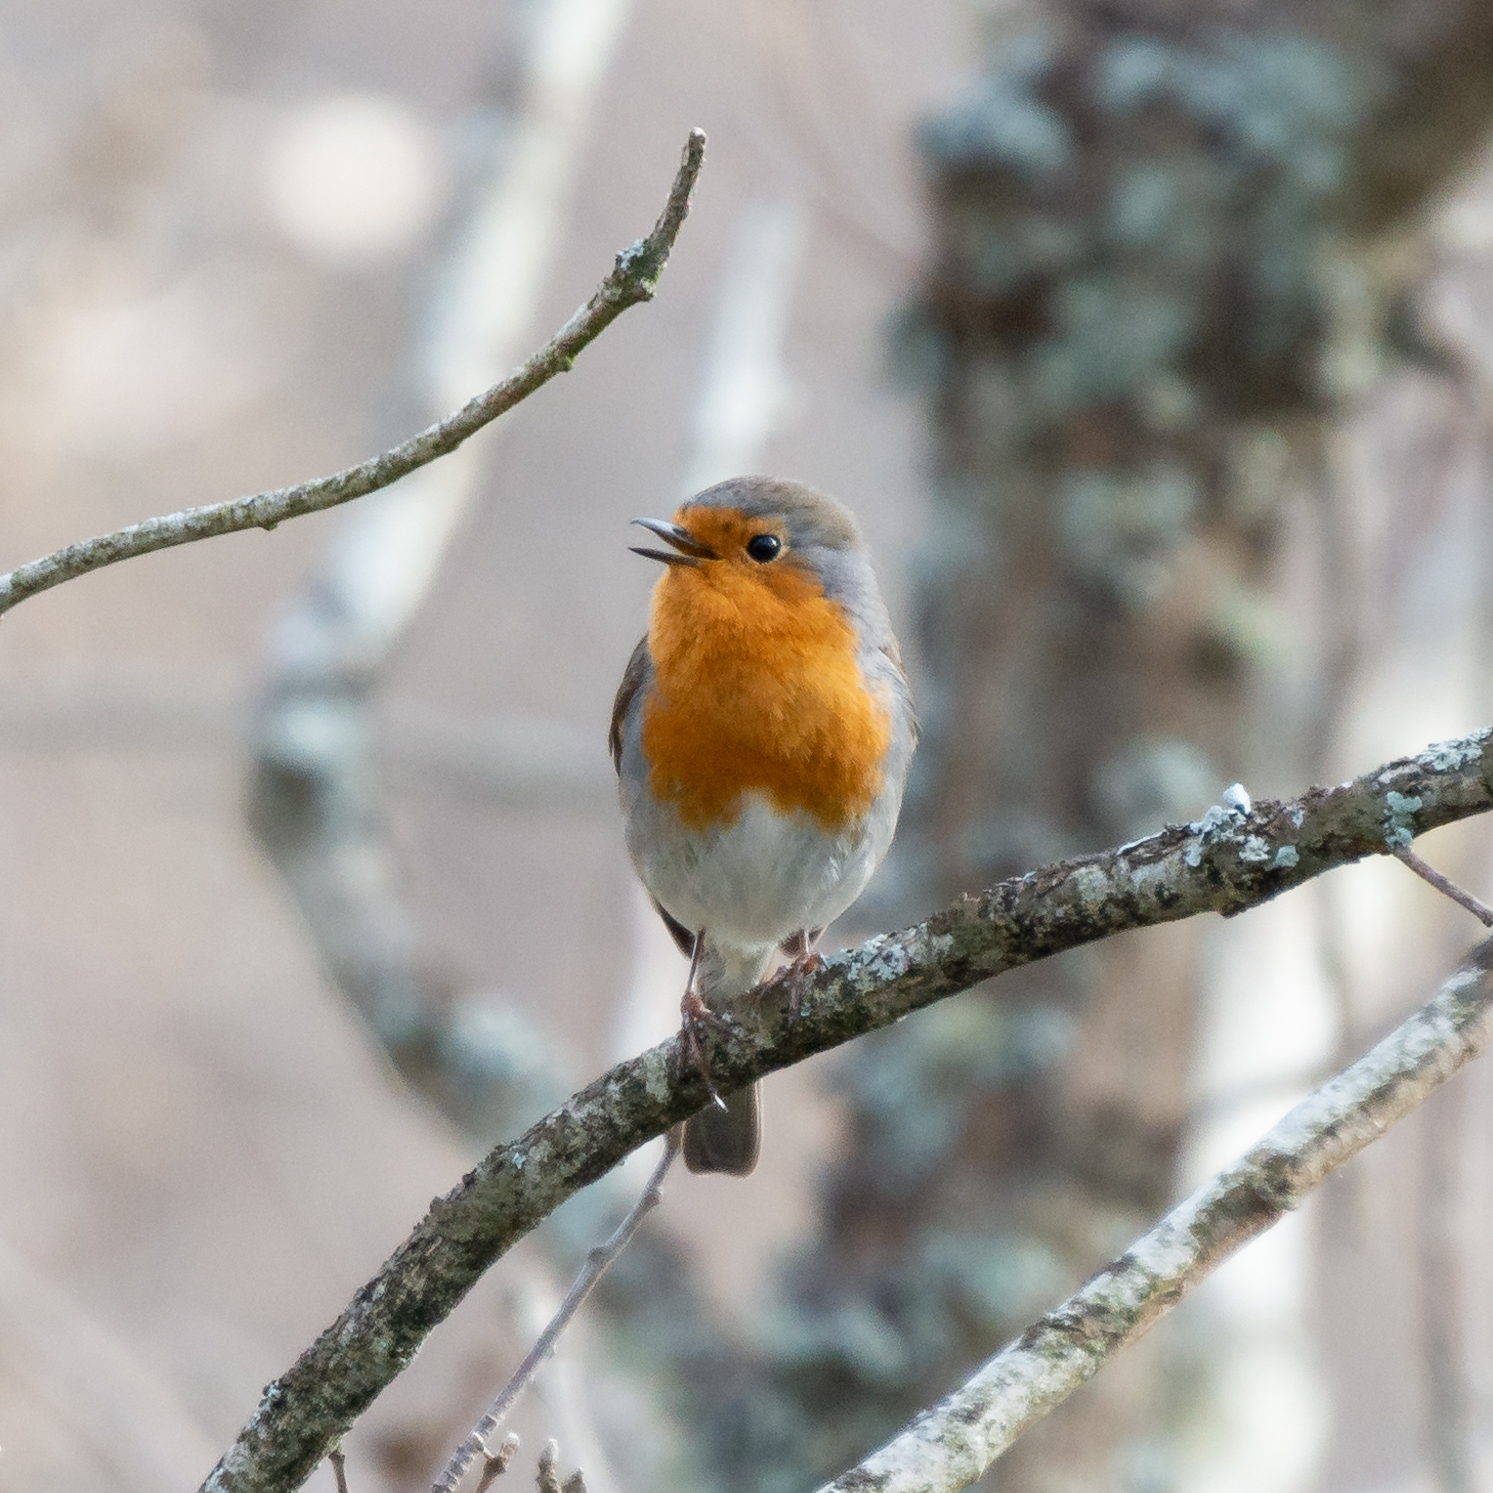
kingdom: Animalia
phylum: Chordata
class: Aves
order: Passeriformes
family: Muscicapidae
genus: Erithacus
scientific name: Erithacus rubecula
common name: European robin
